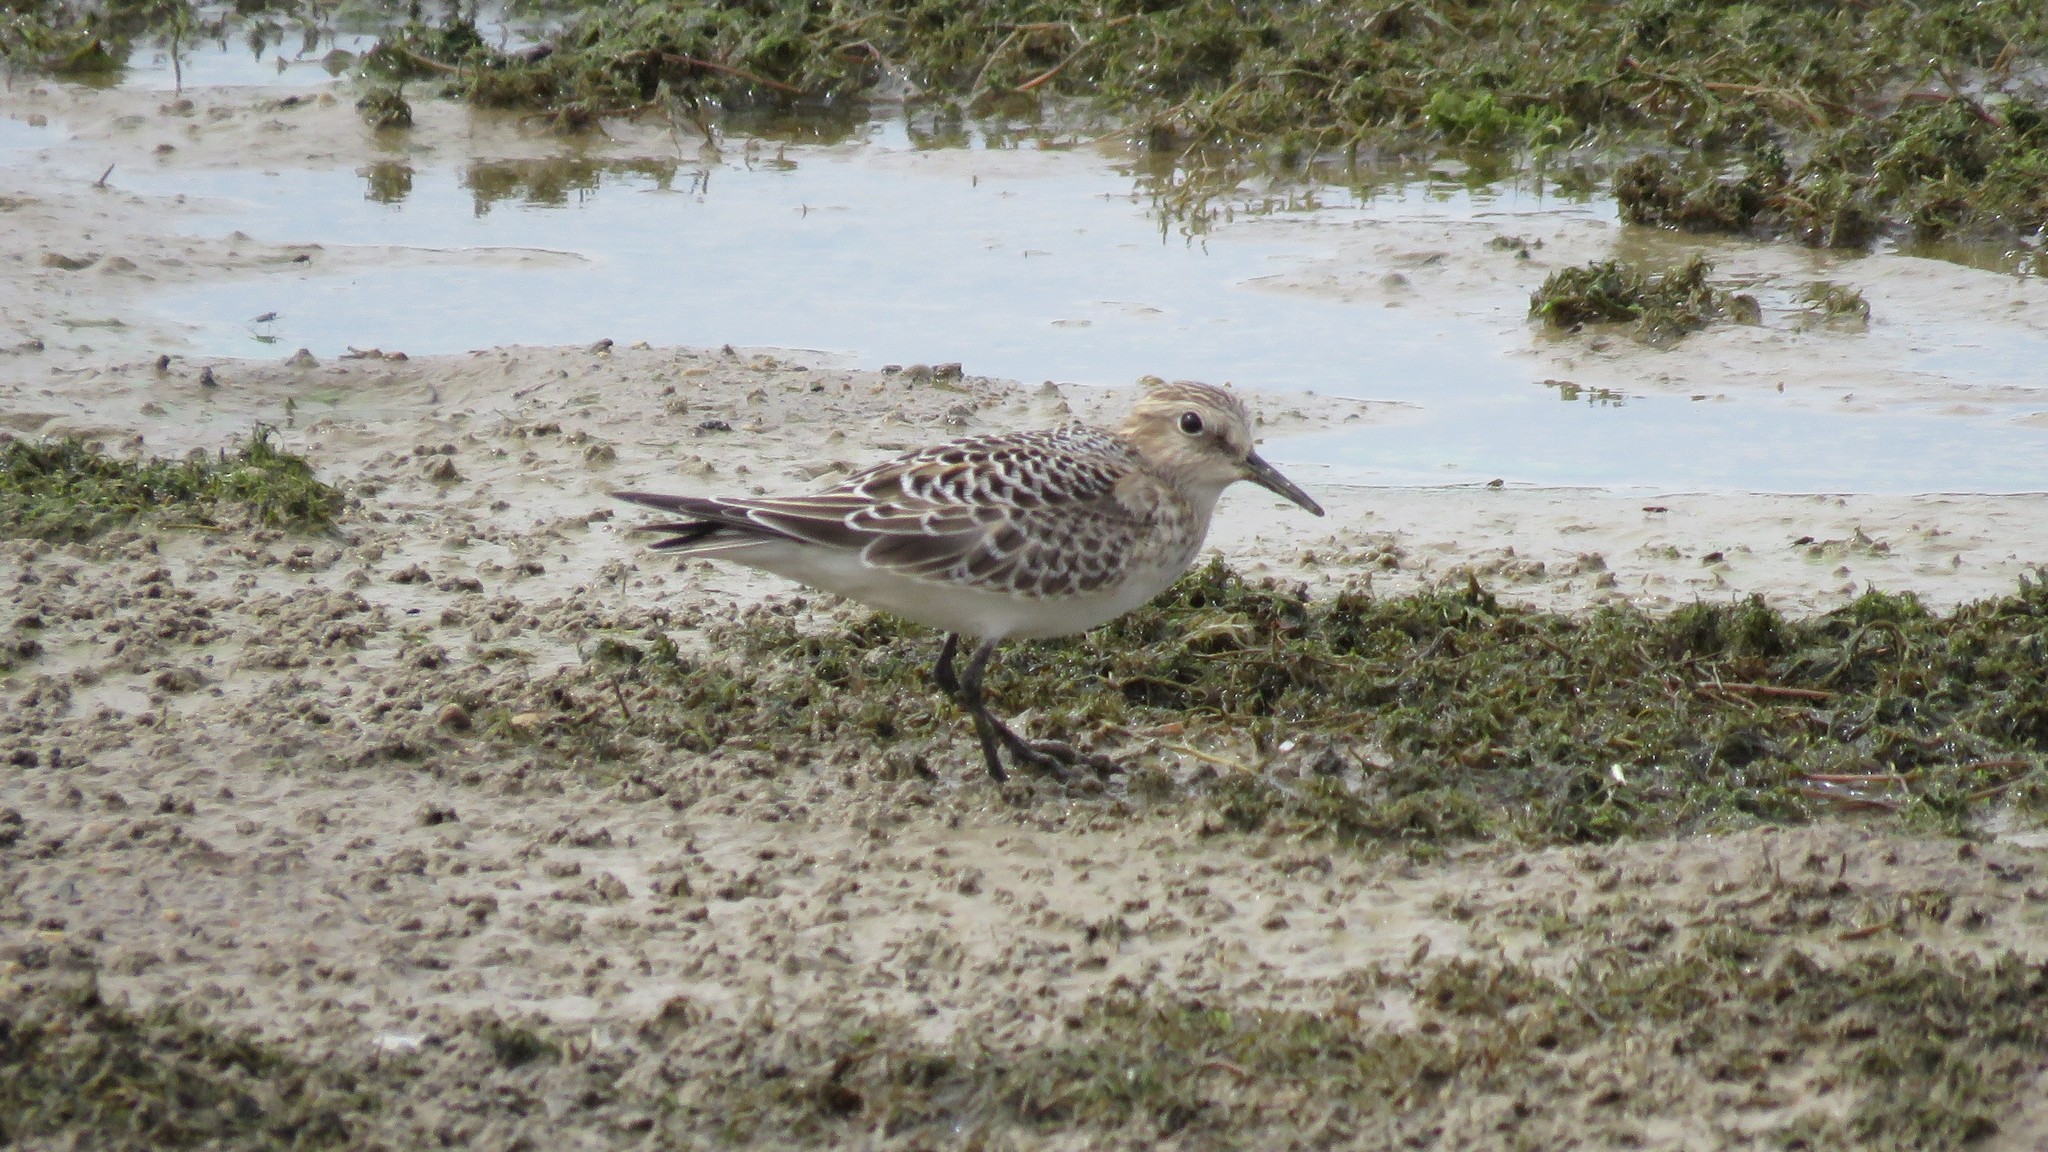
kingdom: Animalia
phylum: Chordata
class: Aves
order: Charadriiformes
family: Scolopacidae
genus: Calidris
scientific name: Calidris bairdii
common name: Baird's sandpiper
